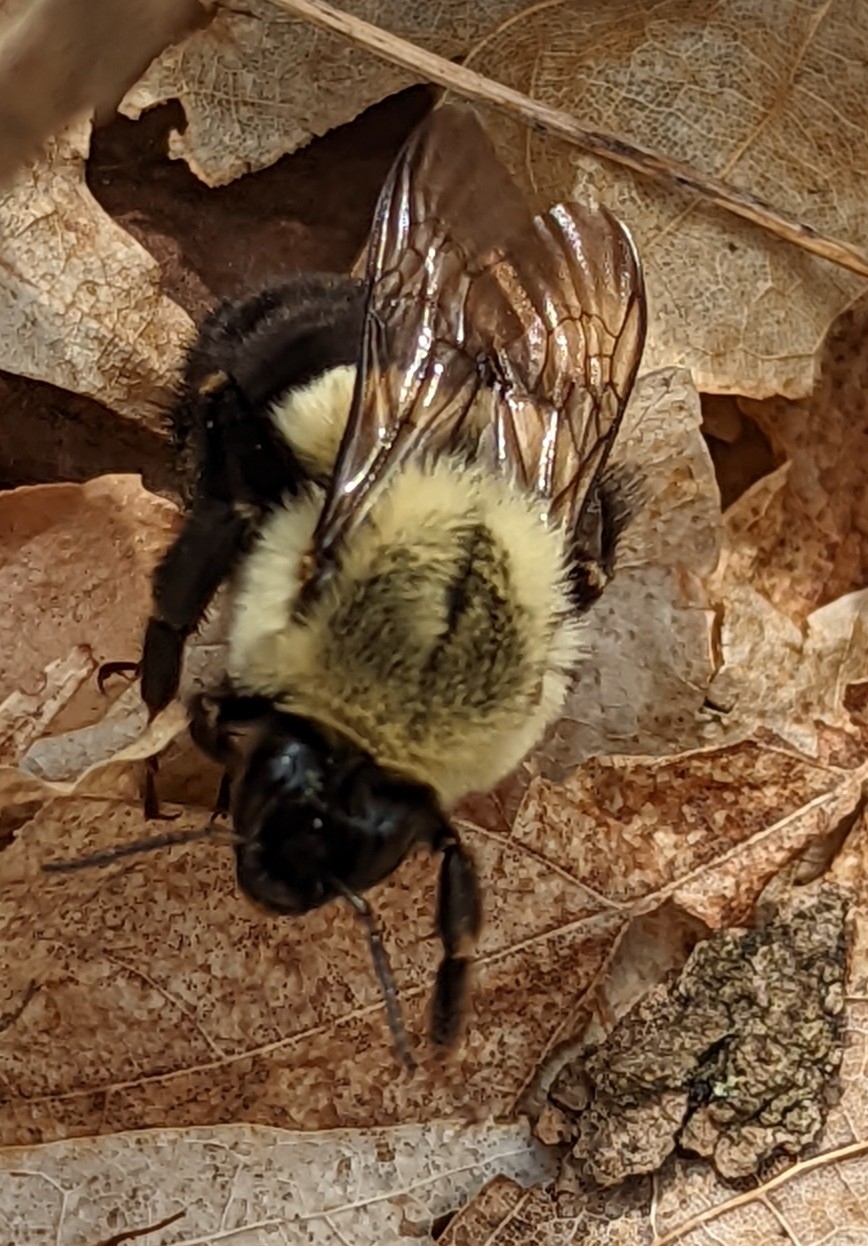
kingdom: Animalia
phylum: Arthropoda
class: Insecta
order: Hymenoptera
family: Apidae
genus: Bombus
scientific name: Bombus impatiens
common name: Common eastern bumble bee
